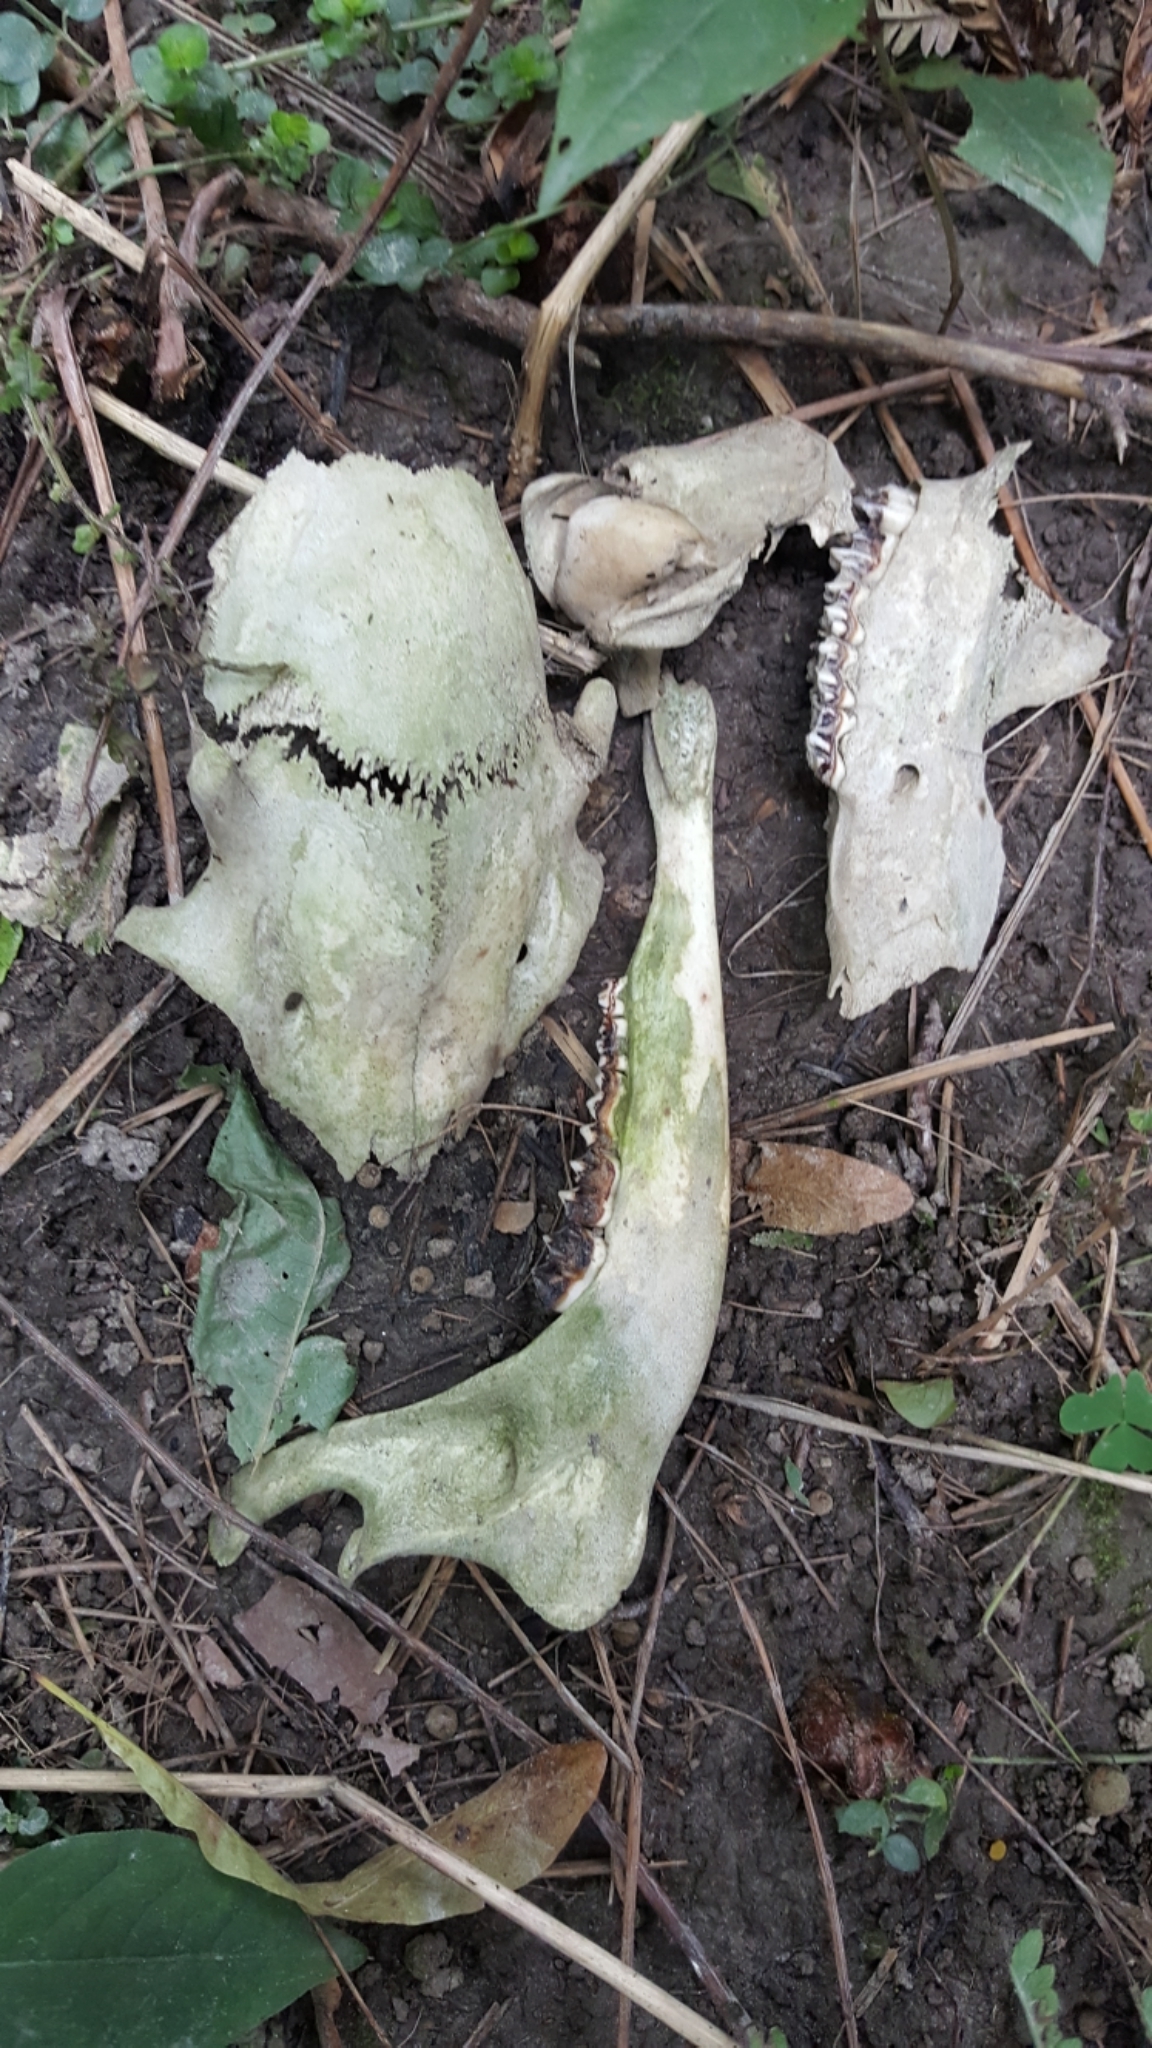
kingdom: Animalia
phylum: Chordata
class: Mammalia
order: Artiodactyla
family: Cervidae
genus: Odocoileus
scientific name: Odocoileus virginianus
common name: White-tailed deer
